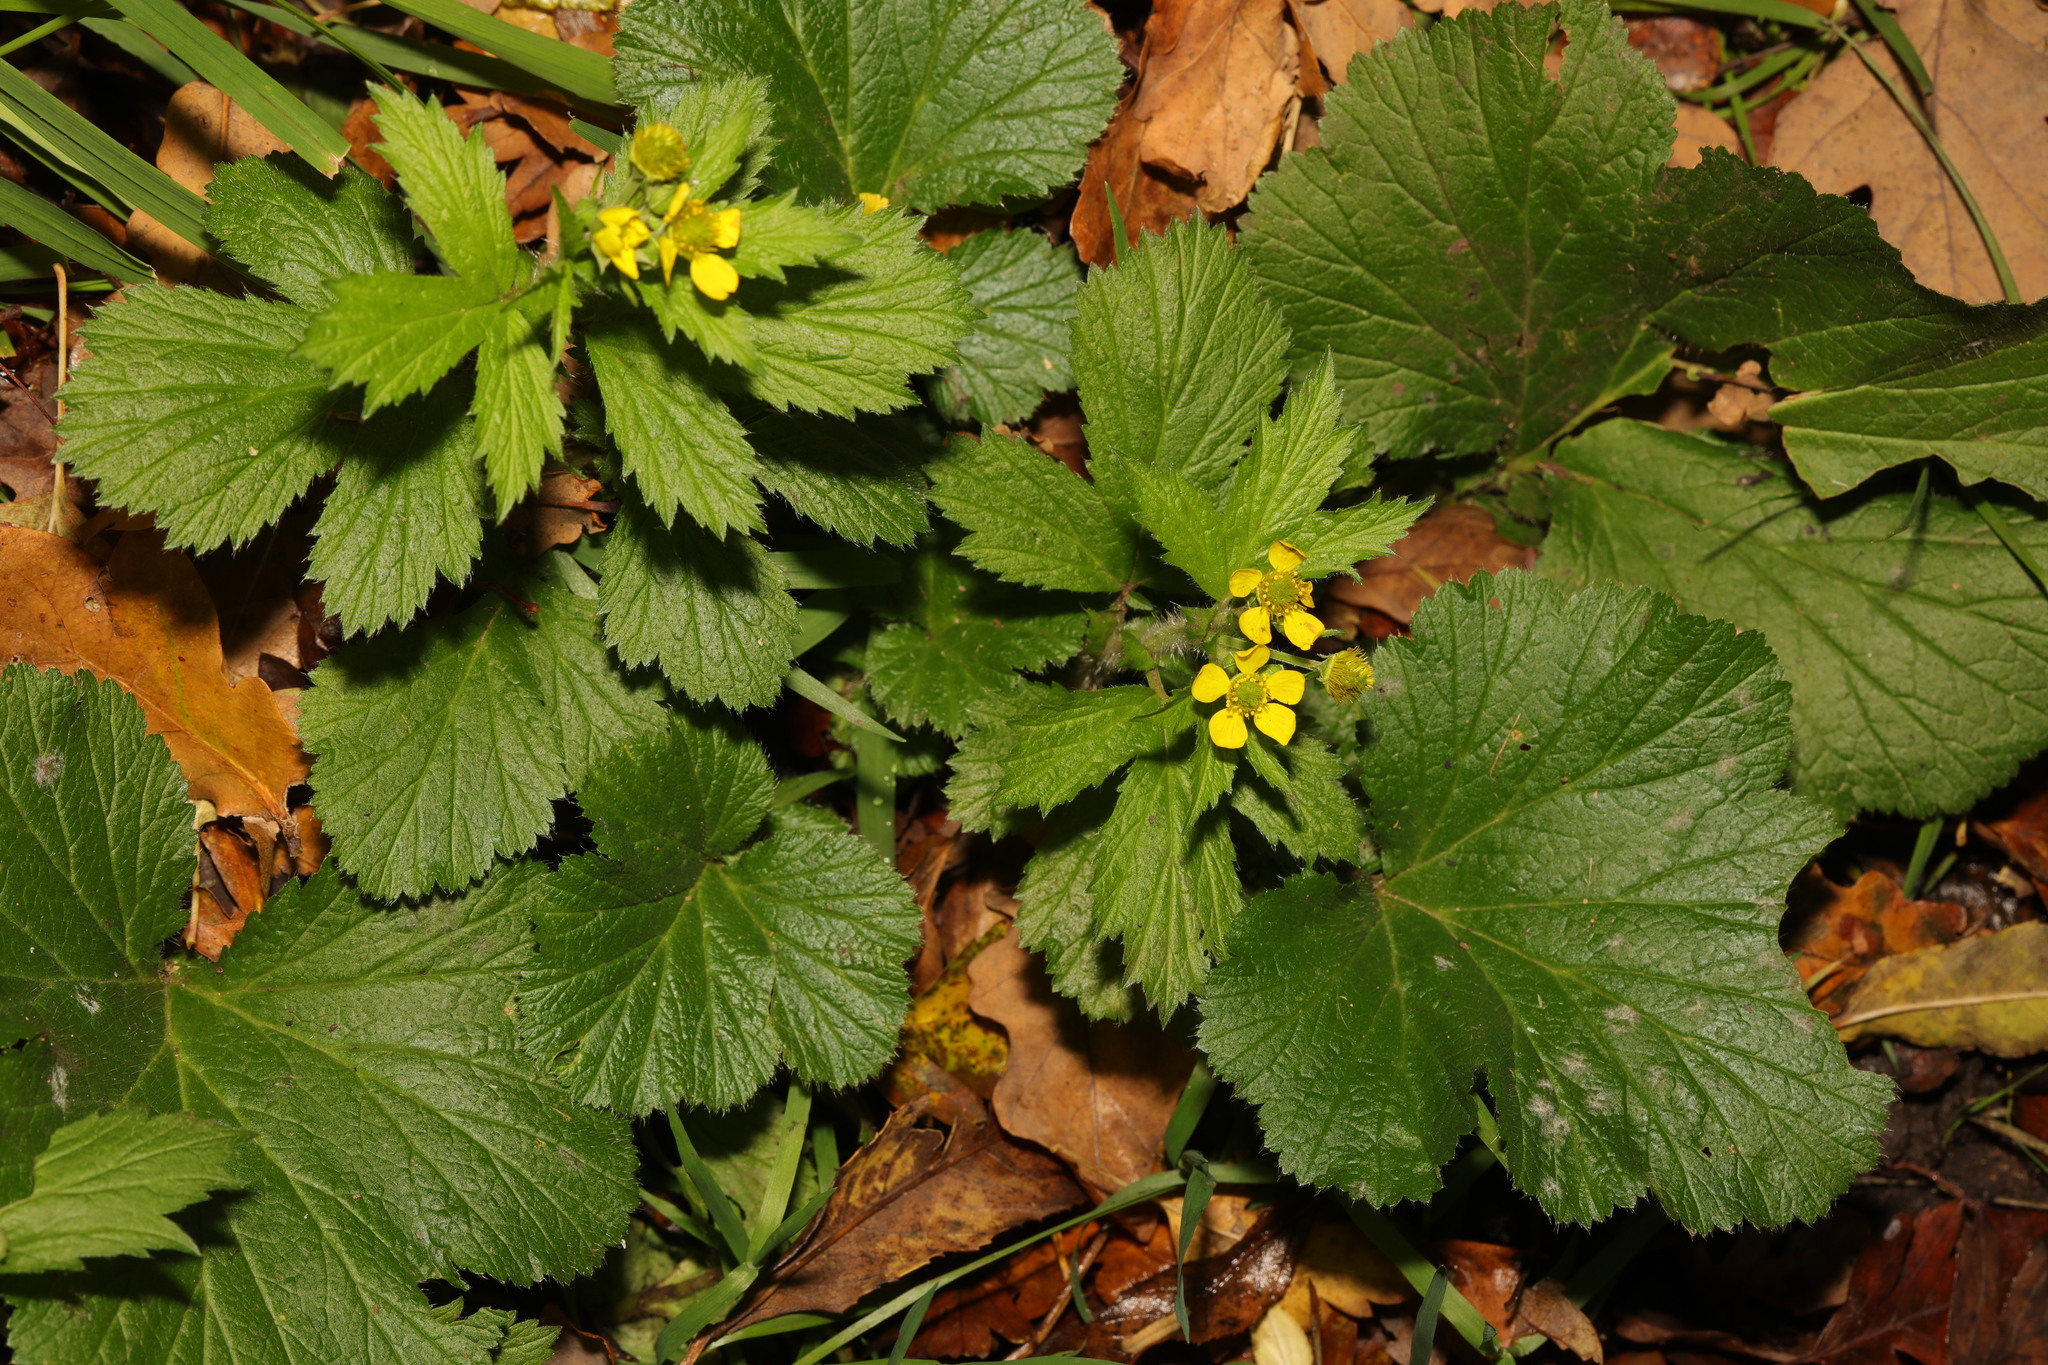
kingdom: Plantae
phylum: Tracheophyta
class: Magnoliopsida
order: Rosales
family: Rosaceae
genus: Geum
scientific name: Geum macrophyllum
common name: Large-leaved avens
